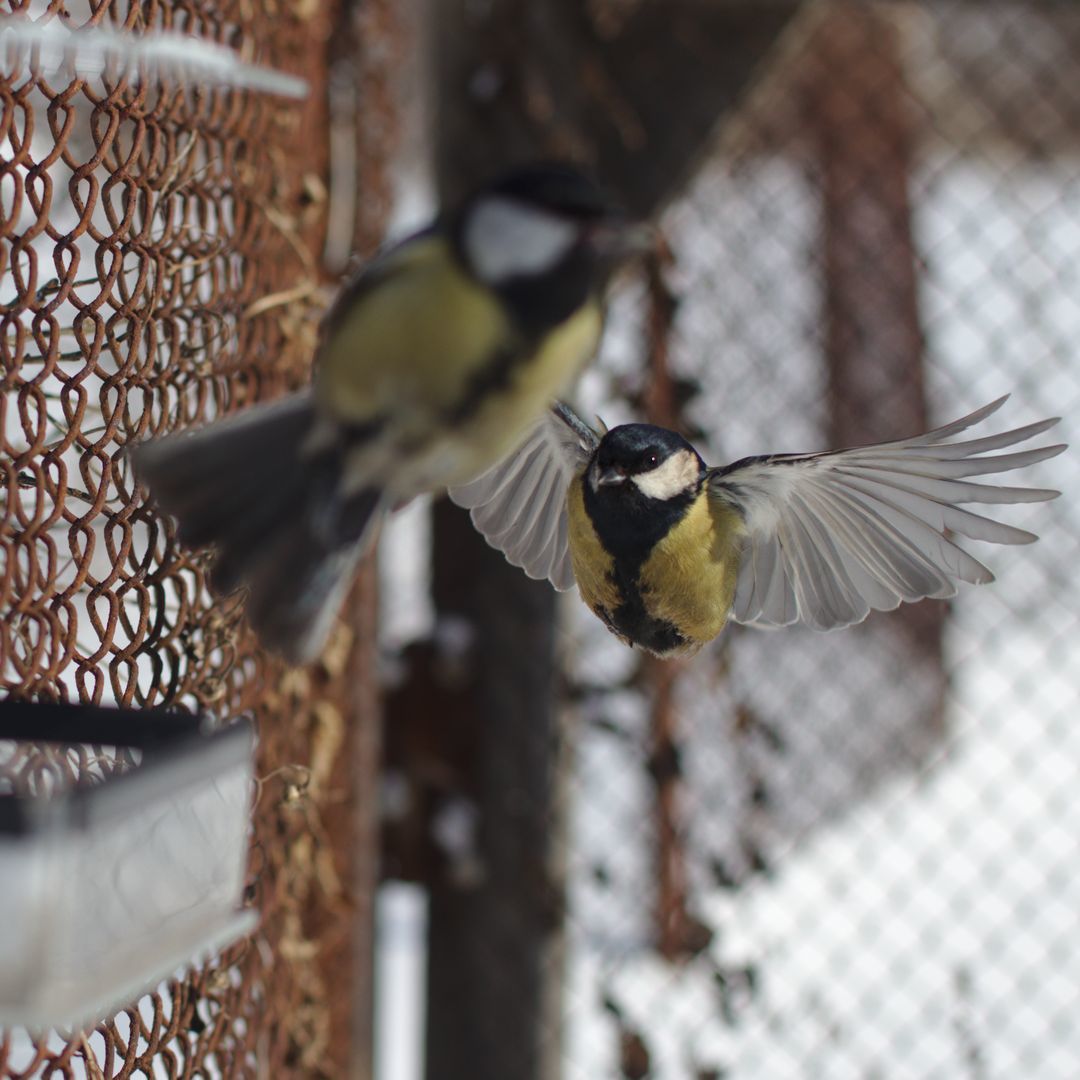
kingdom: Animalia
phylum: Chordata
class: Aves
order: Passeriformes
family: Paridae
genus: Parus
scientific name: Parus major
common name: Great tit
